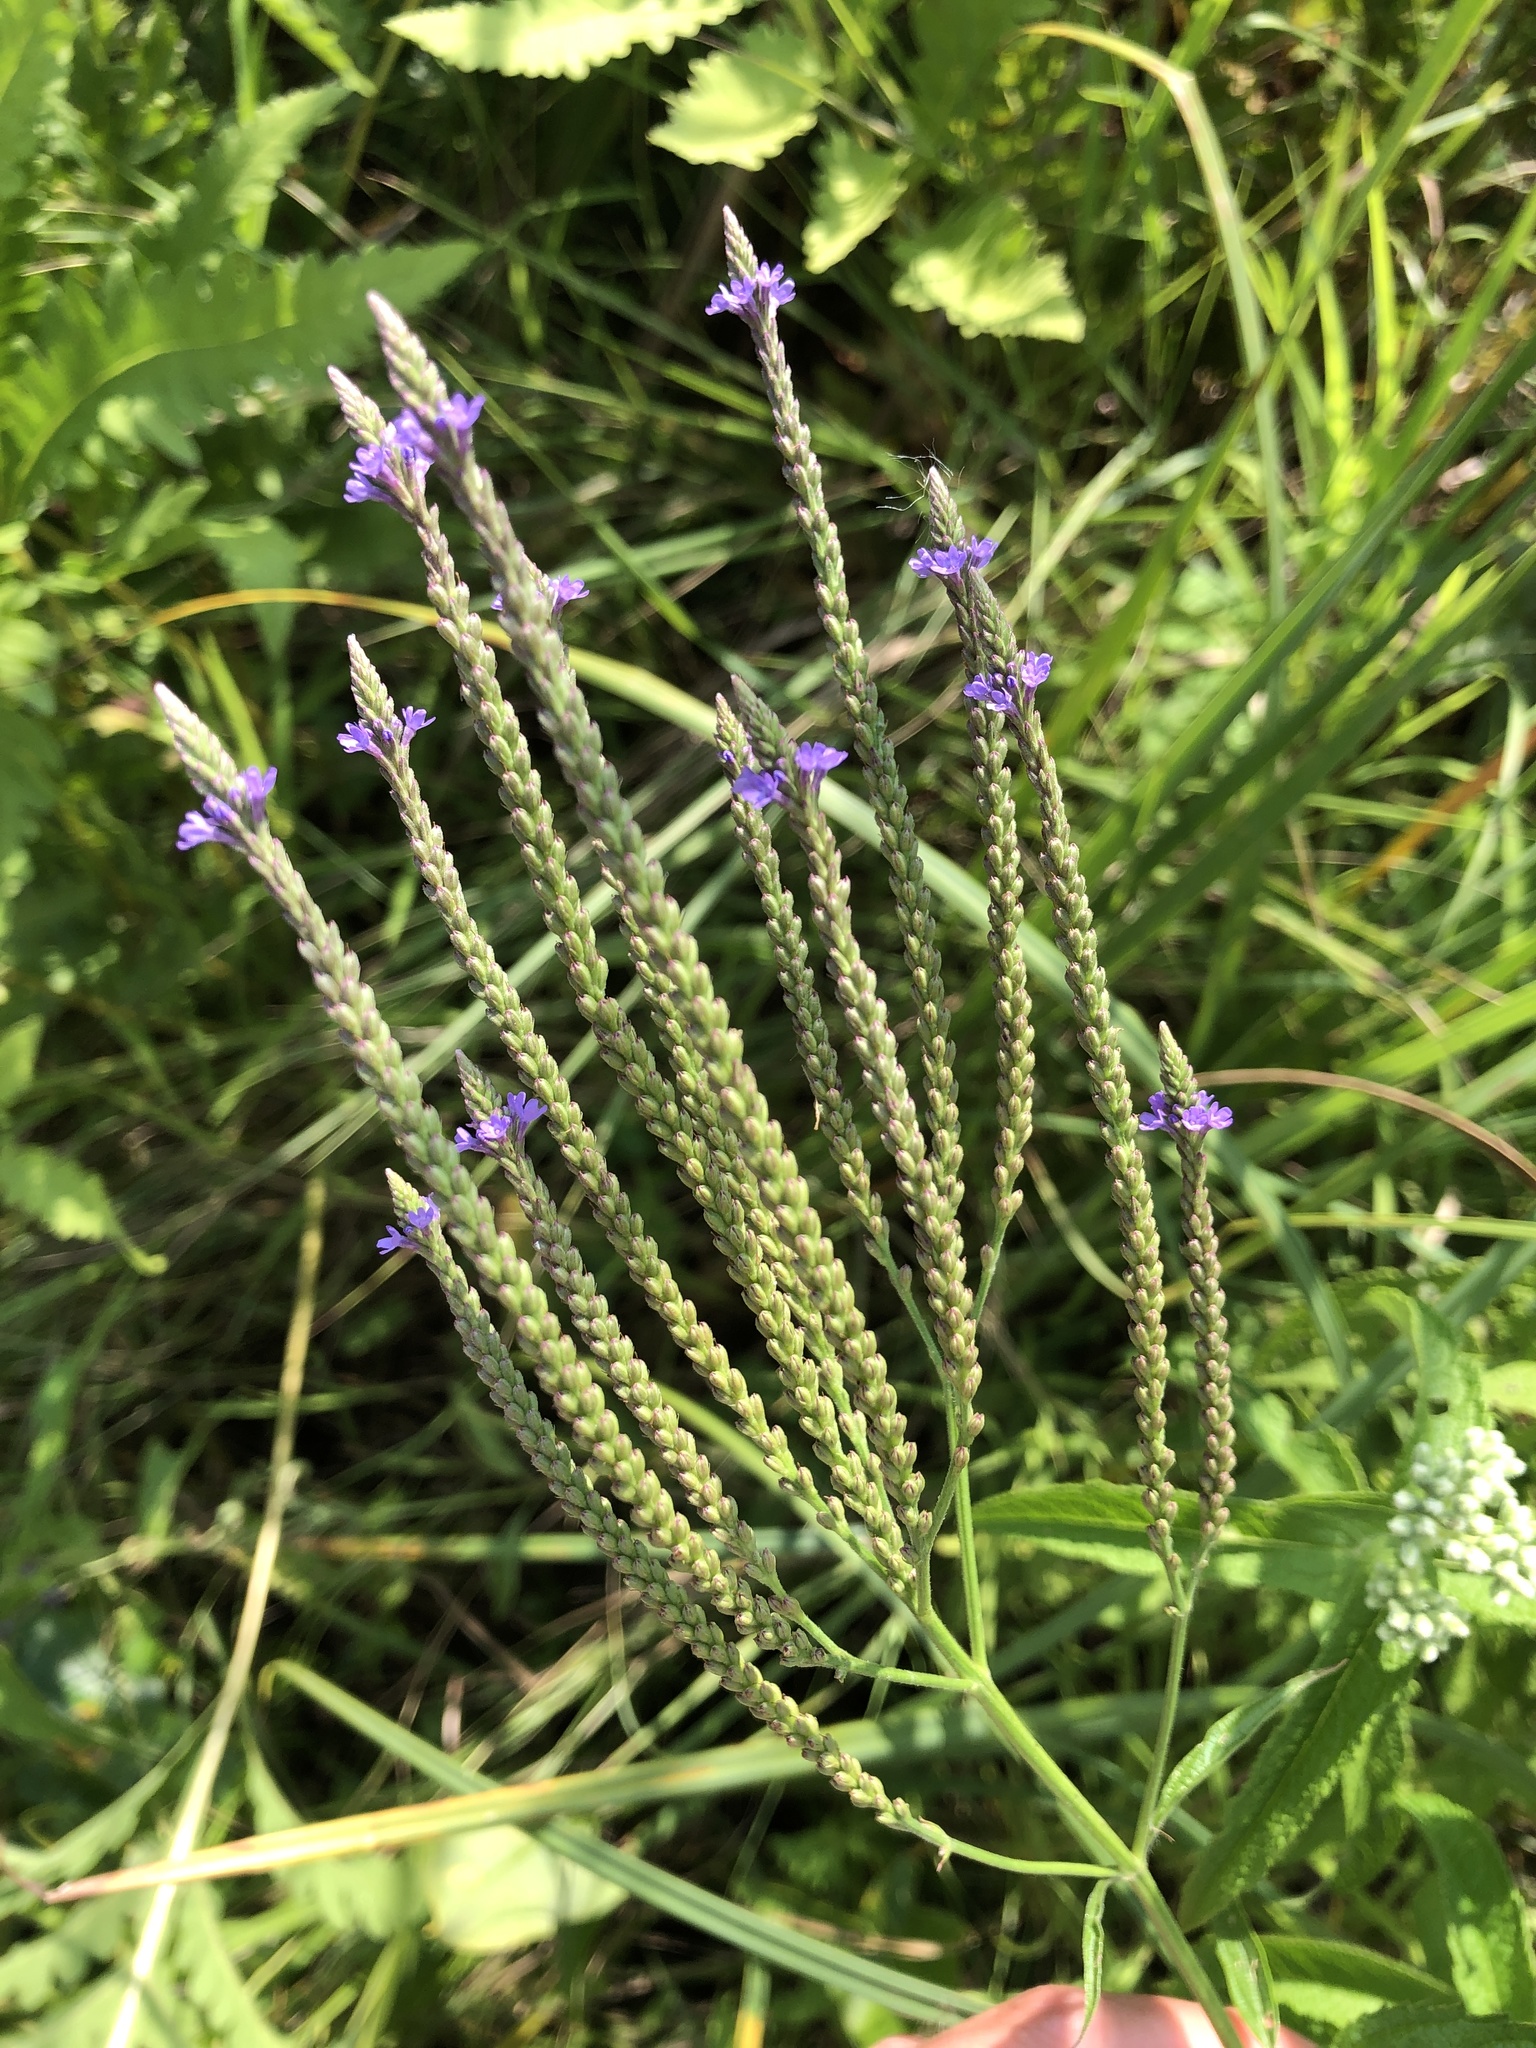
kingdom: Plantae
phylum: Tracheophyta
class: Magnoliopsida
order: Lamiales
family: Verbenaceae
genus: Verbena
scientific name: Verbena hastata
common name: American blue vervain
